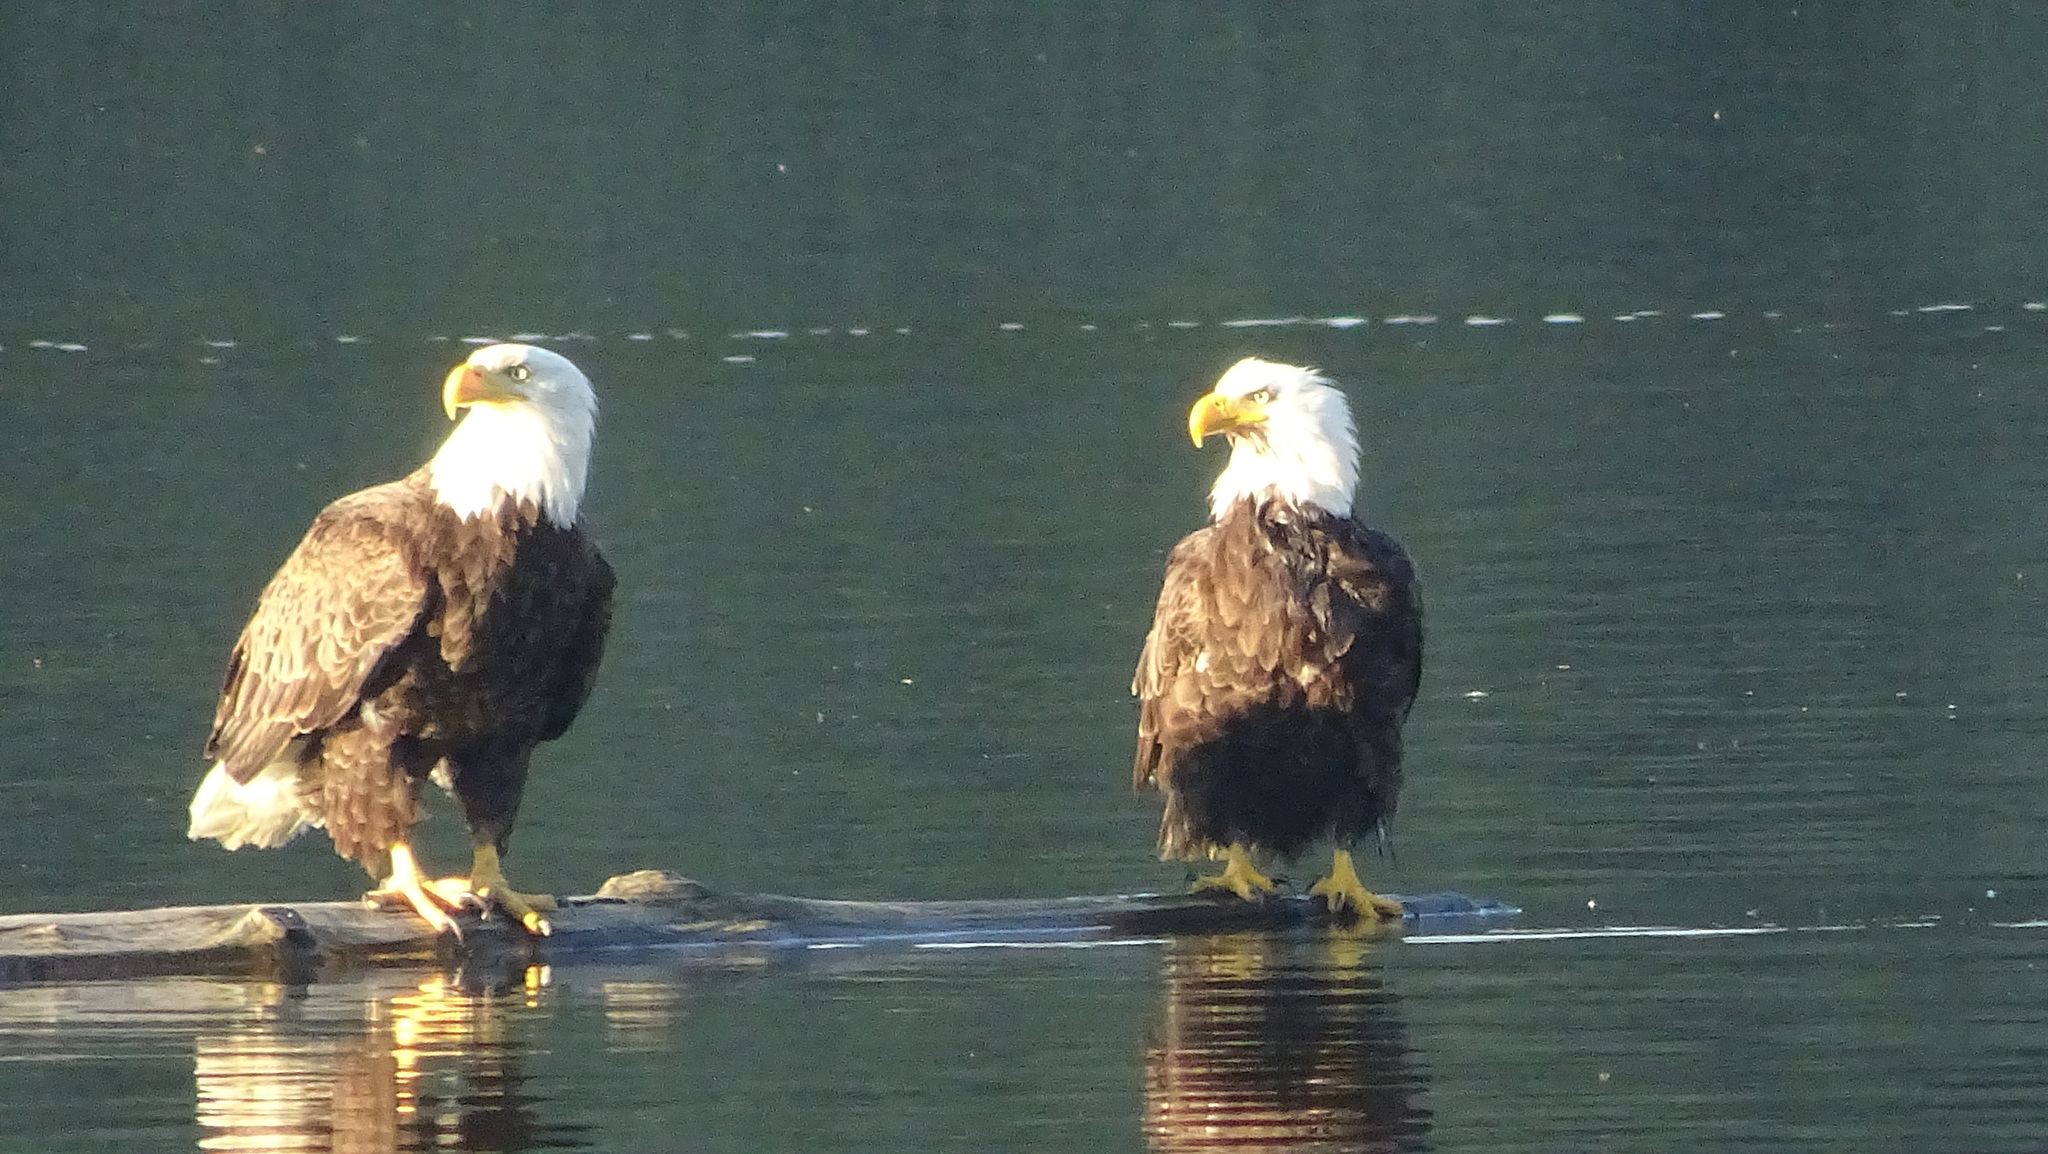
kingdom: Animalia
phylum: Chordata
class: Aves
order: Accipitriformes
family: Accipitridae
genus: Haliaeetus
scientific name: Haliaeetus leucocephalus
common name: Bald eagle
